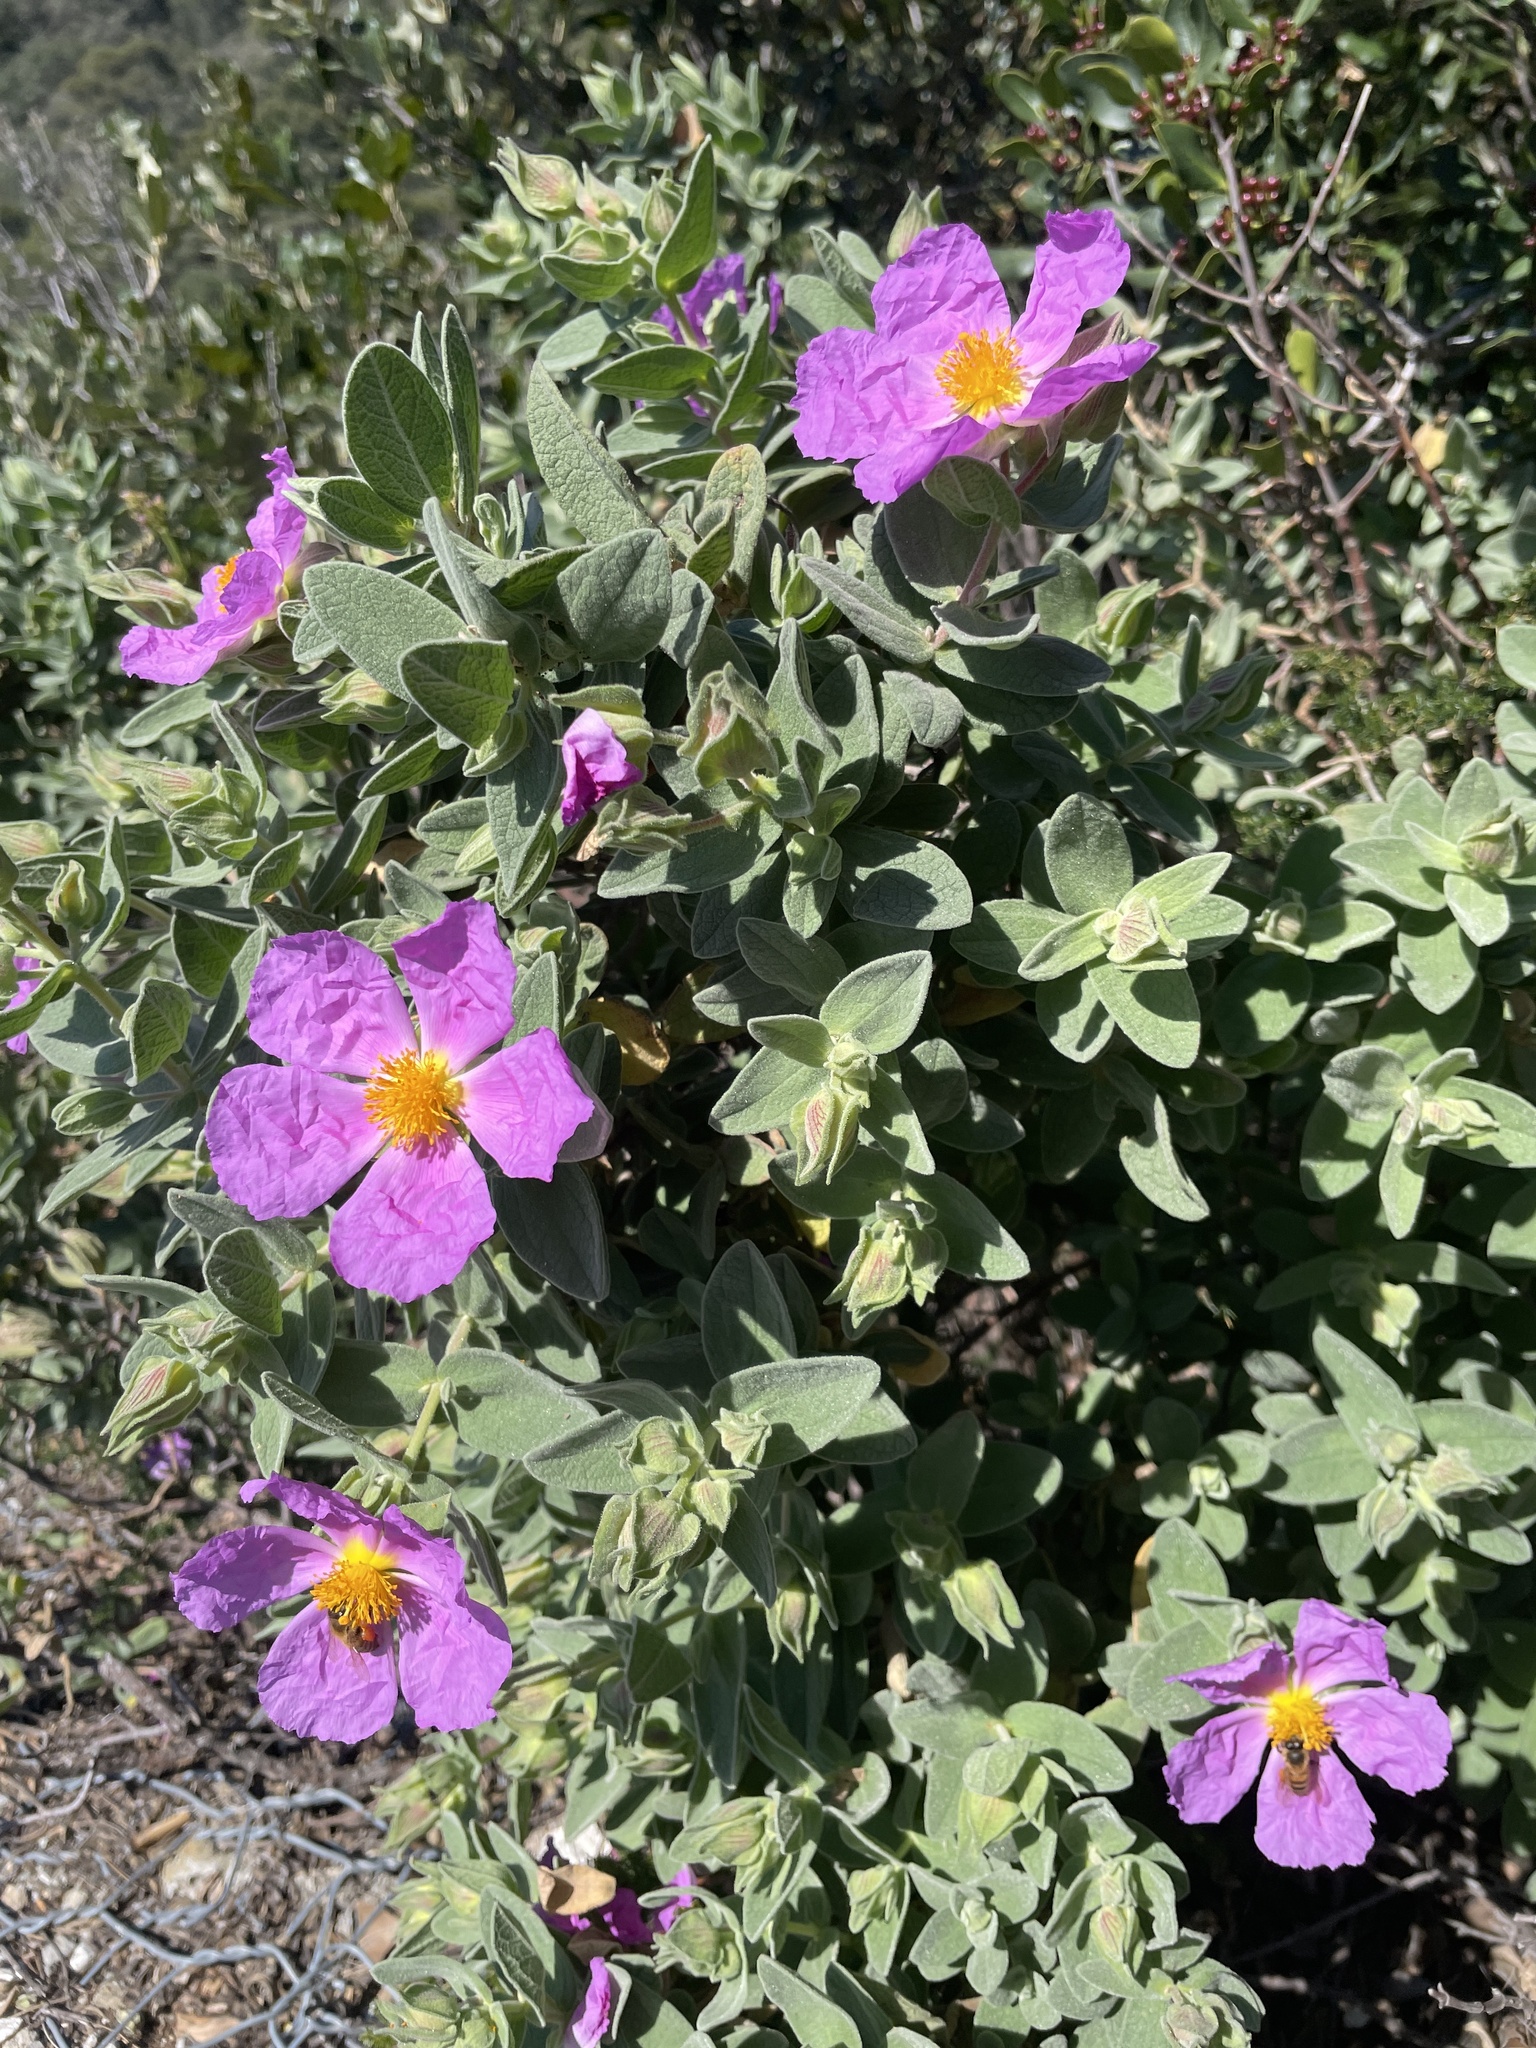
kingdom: Plantae
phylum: Tracheophyta
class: Magnoliopsida
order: Malvales
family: Cistaceae
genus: Cistus
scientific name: Cistus albidus
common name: White-leaf rock-rose
